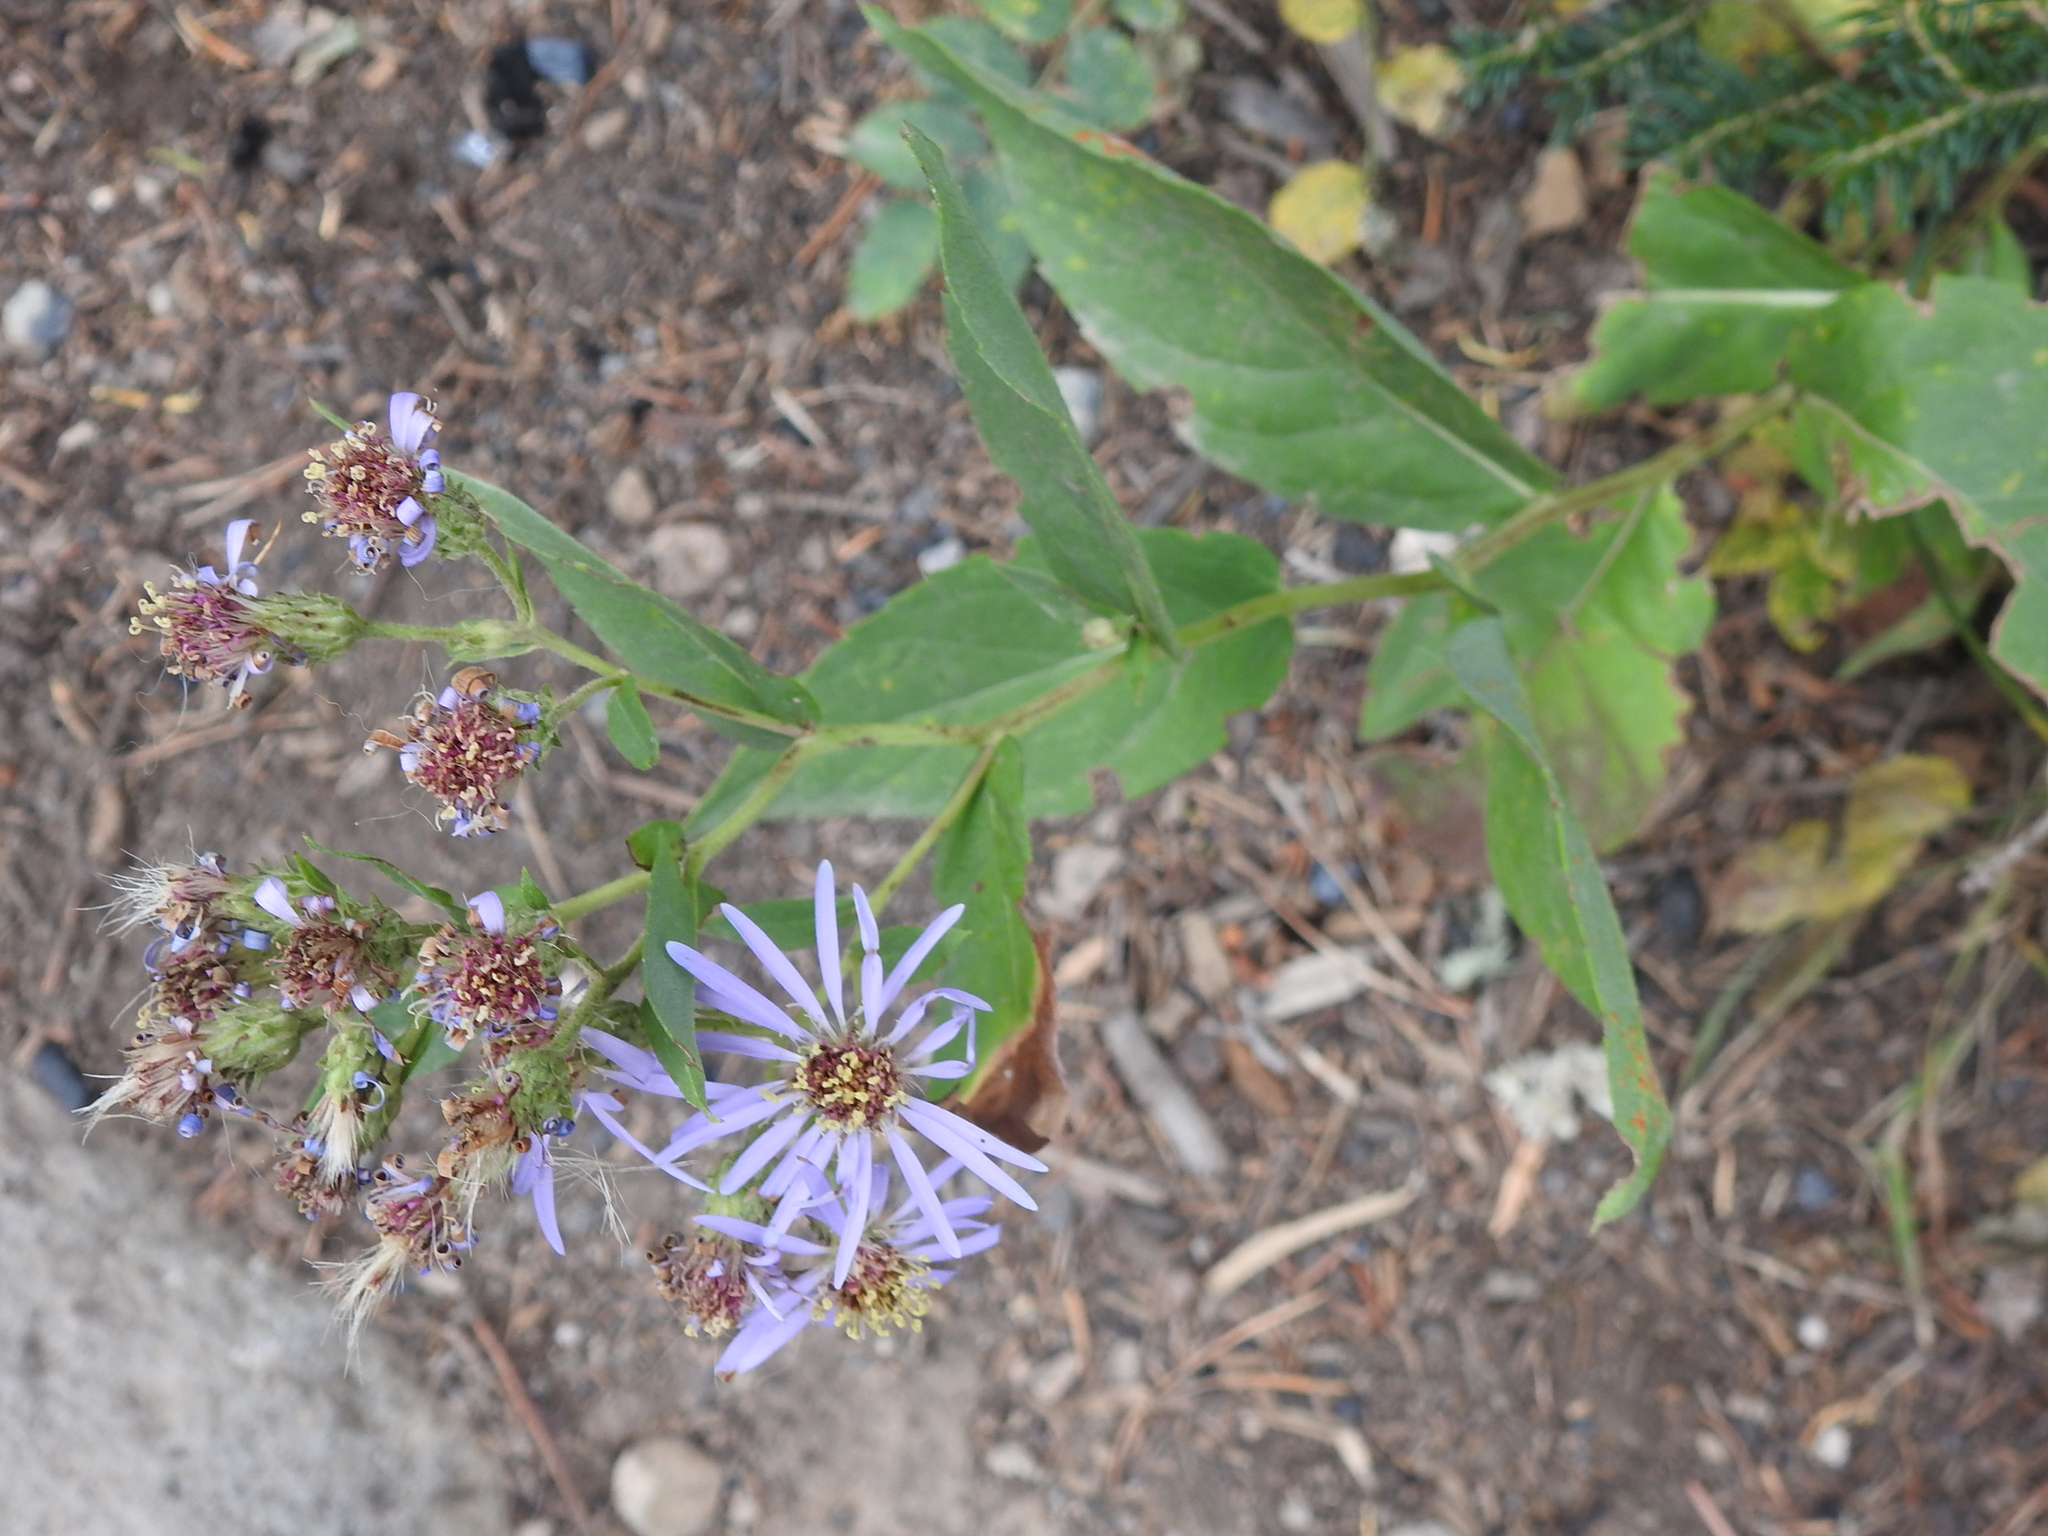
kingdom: Plantae
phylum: Tracheophyta
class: Magnoliopsida
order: Asterales
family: Asteraceae
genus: Eurybia
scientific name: Eurybia conspicua
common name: Showy aster
